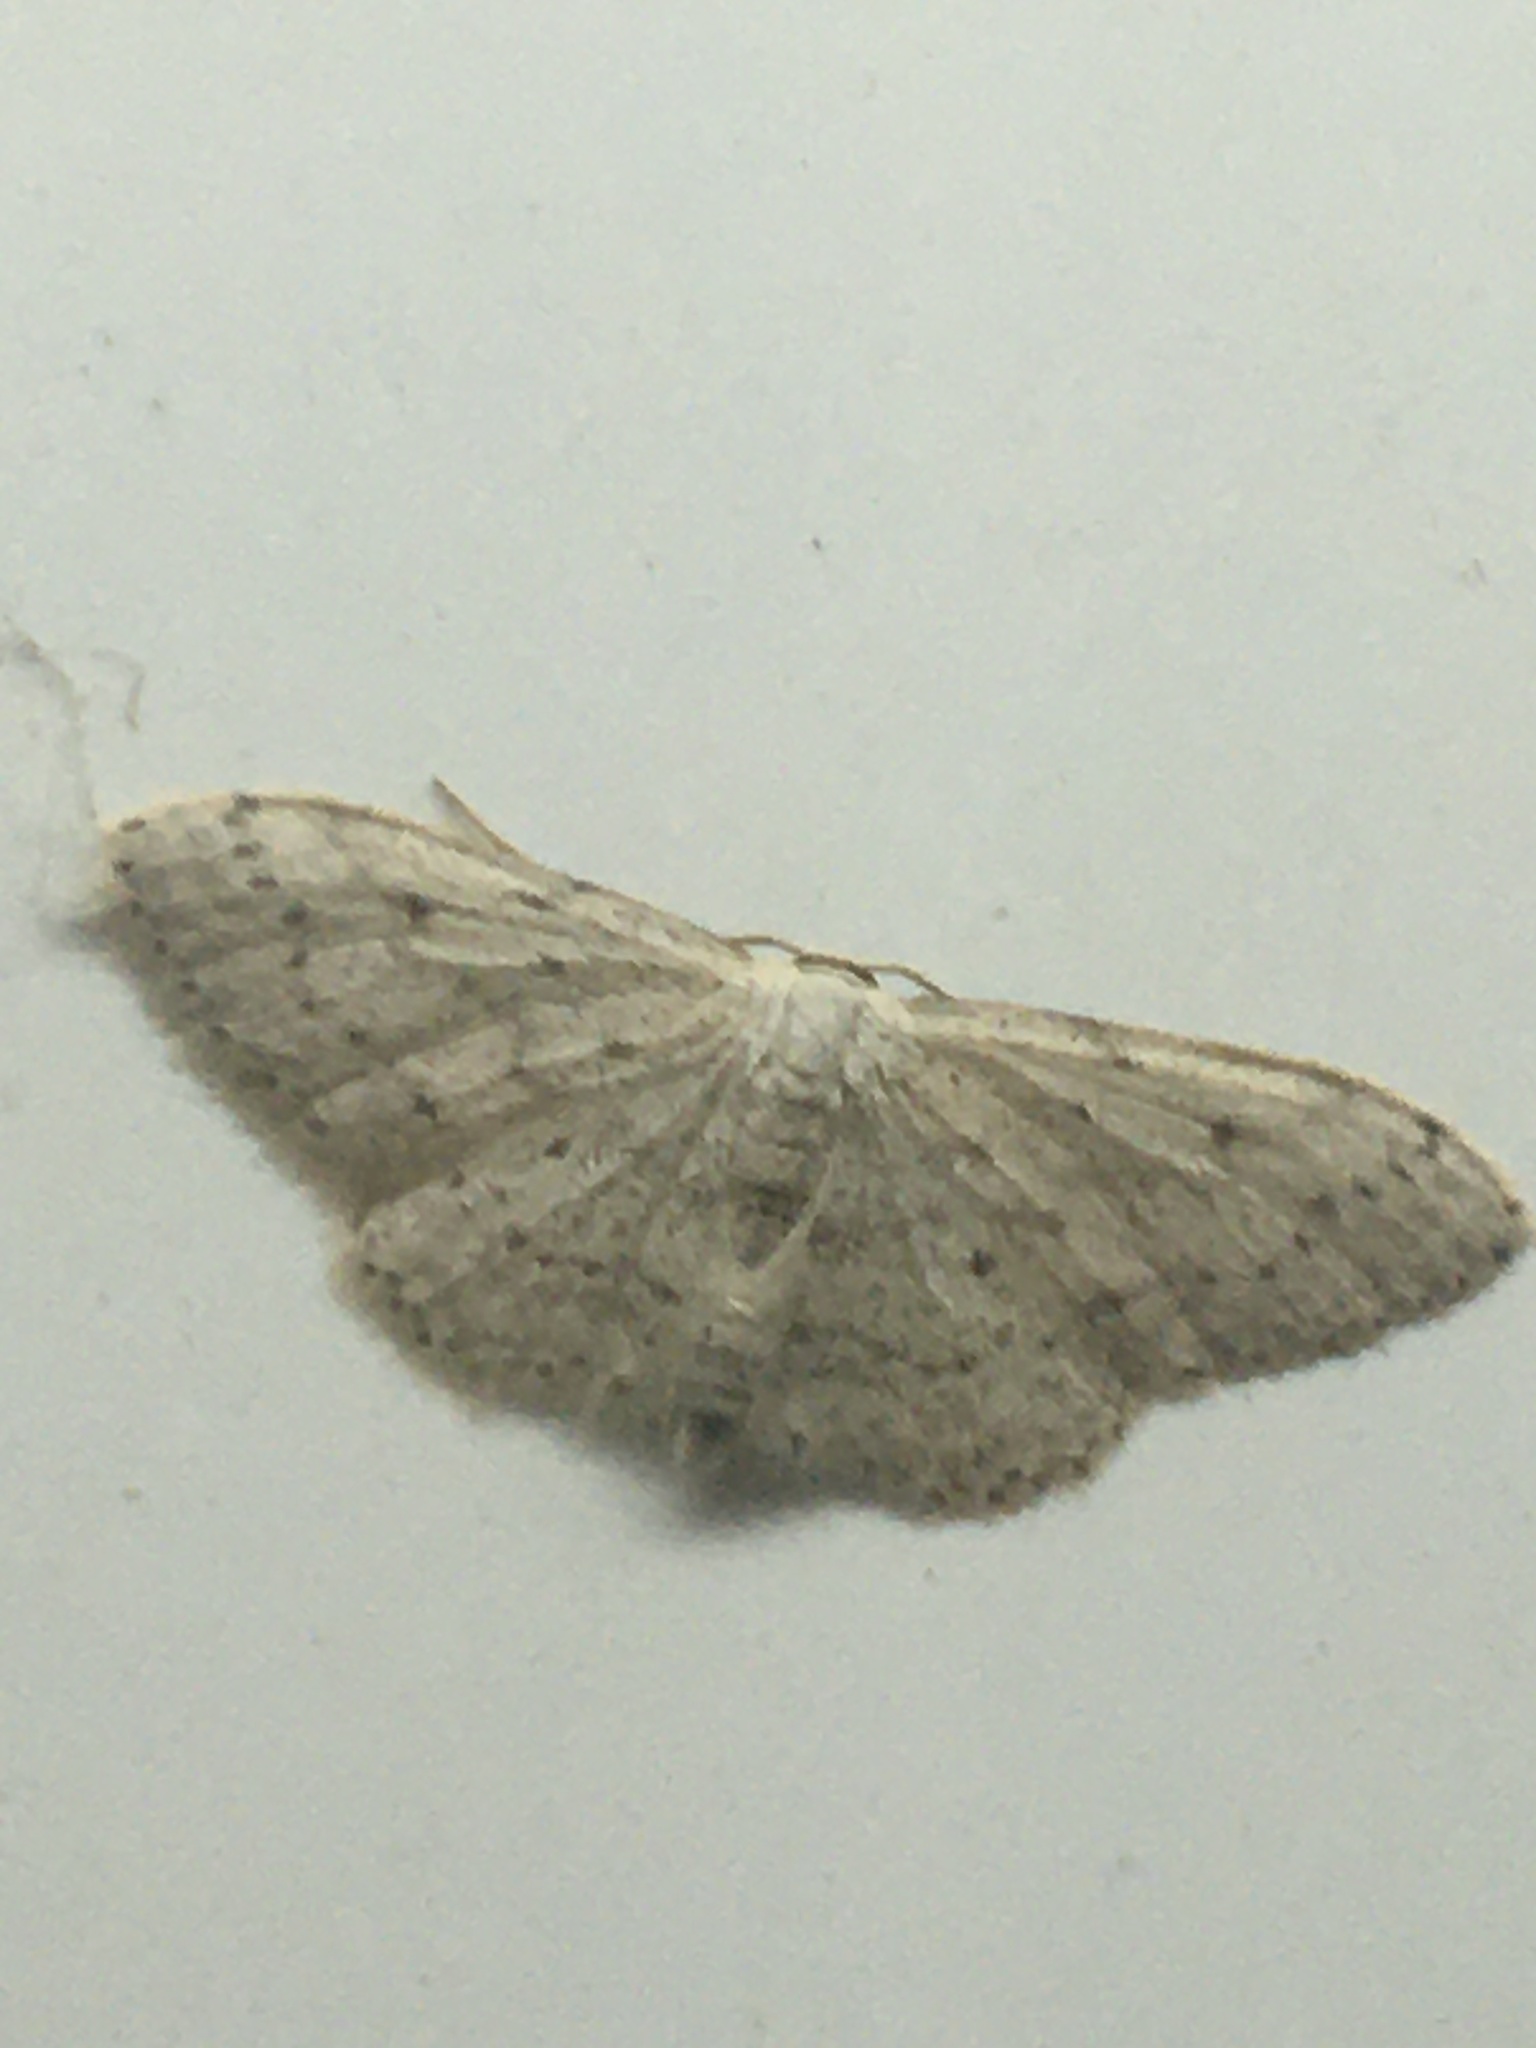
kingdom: Animalia
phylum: Arthropoda
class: Insecta
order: Lepidoptera
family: Geometridae
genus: Idaea
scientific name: Idaea seriata
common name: Small dusty wave
